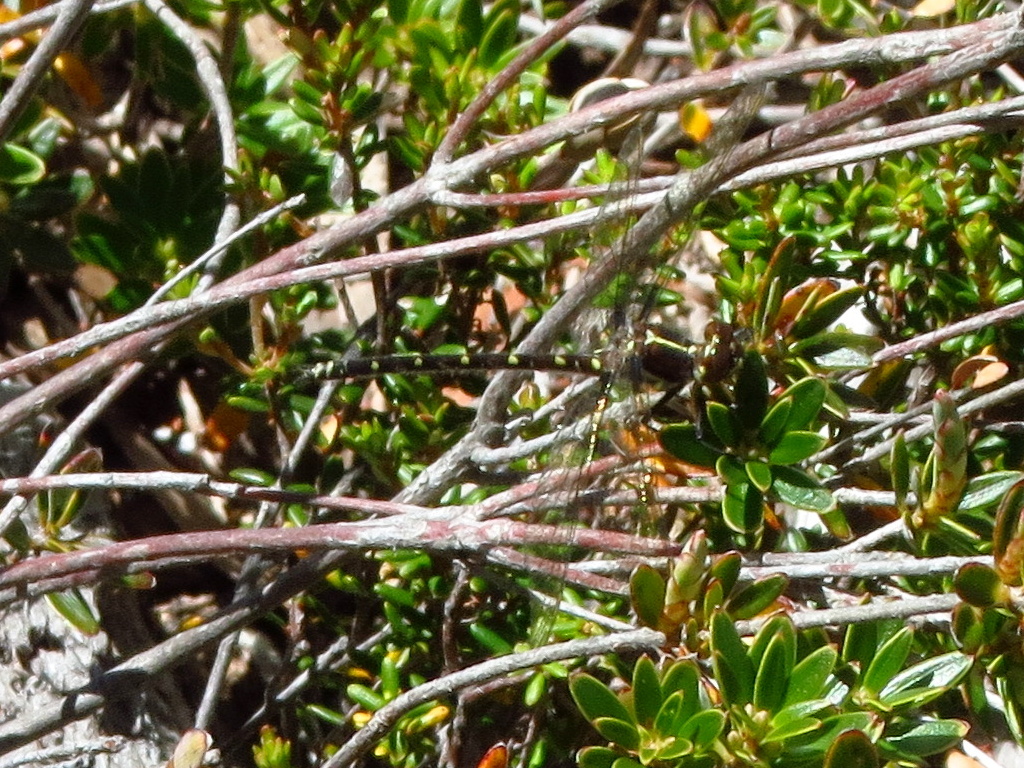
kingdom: Animalia
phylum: Arthropoda
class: Insecta
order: Odonata
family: Synthemistidae
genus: Synthemis
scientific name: Synthemis tasmanica
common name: Tasmanian swamp tigertail
